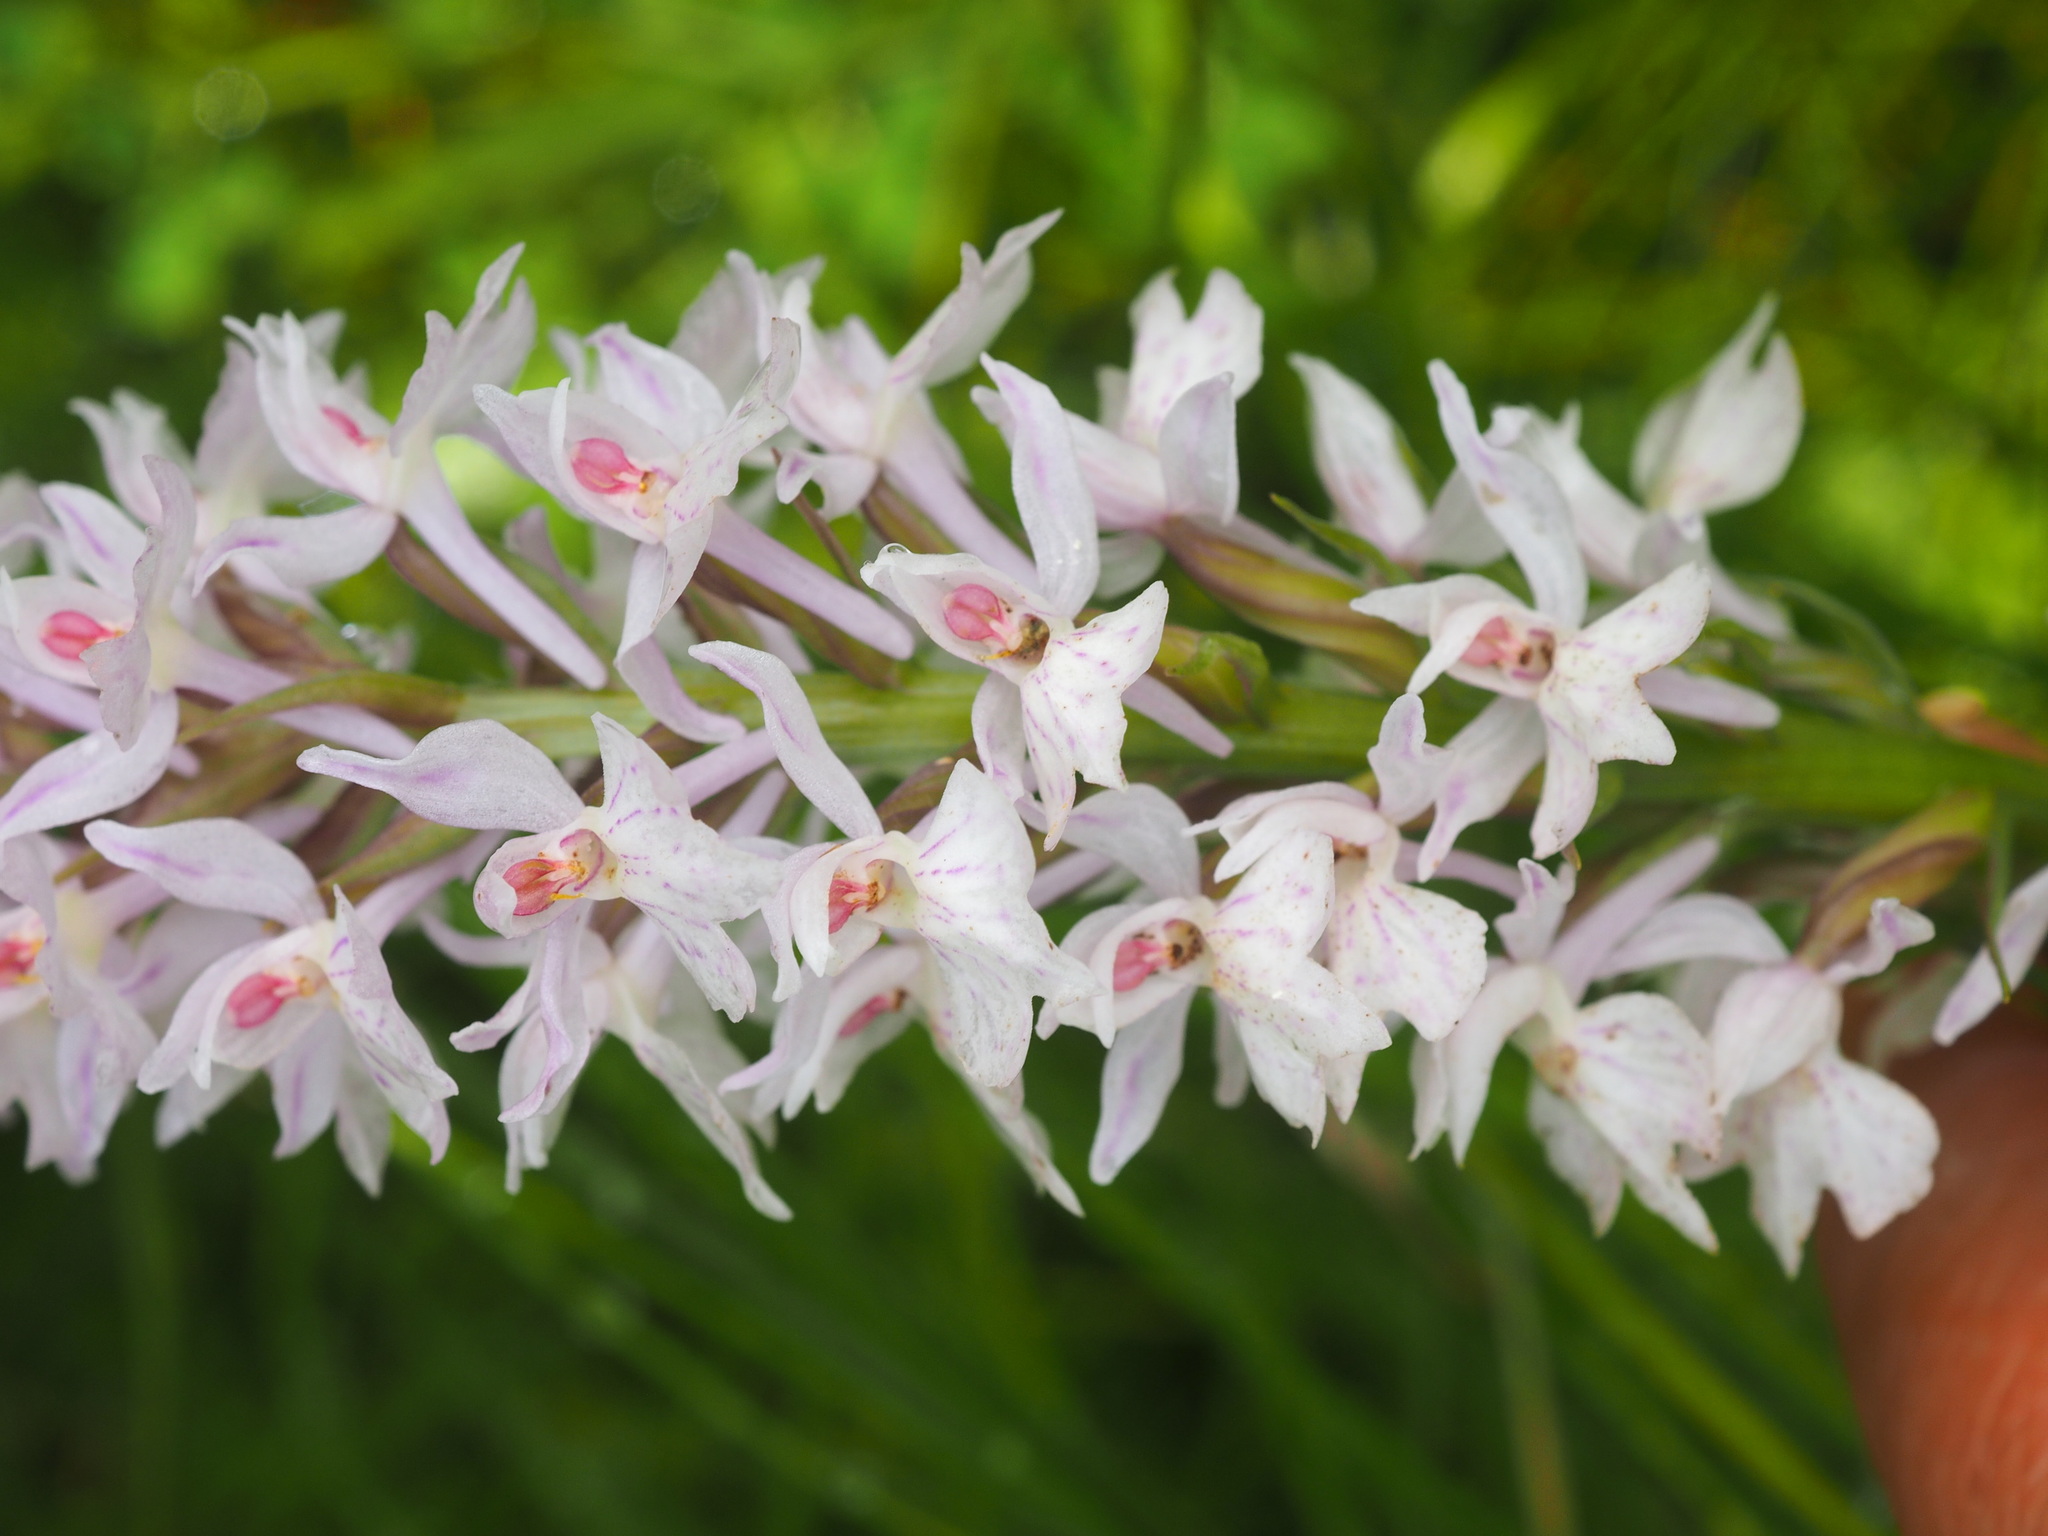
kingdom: Plantae
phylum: Tracheophyta
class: Liliopsida
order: Asparagales
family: Orchidaceae
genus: Dactylorhiza
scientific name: Dactylorhiza maculata
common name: Heath spotted-orchid
